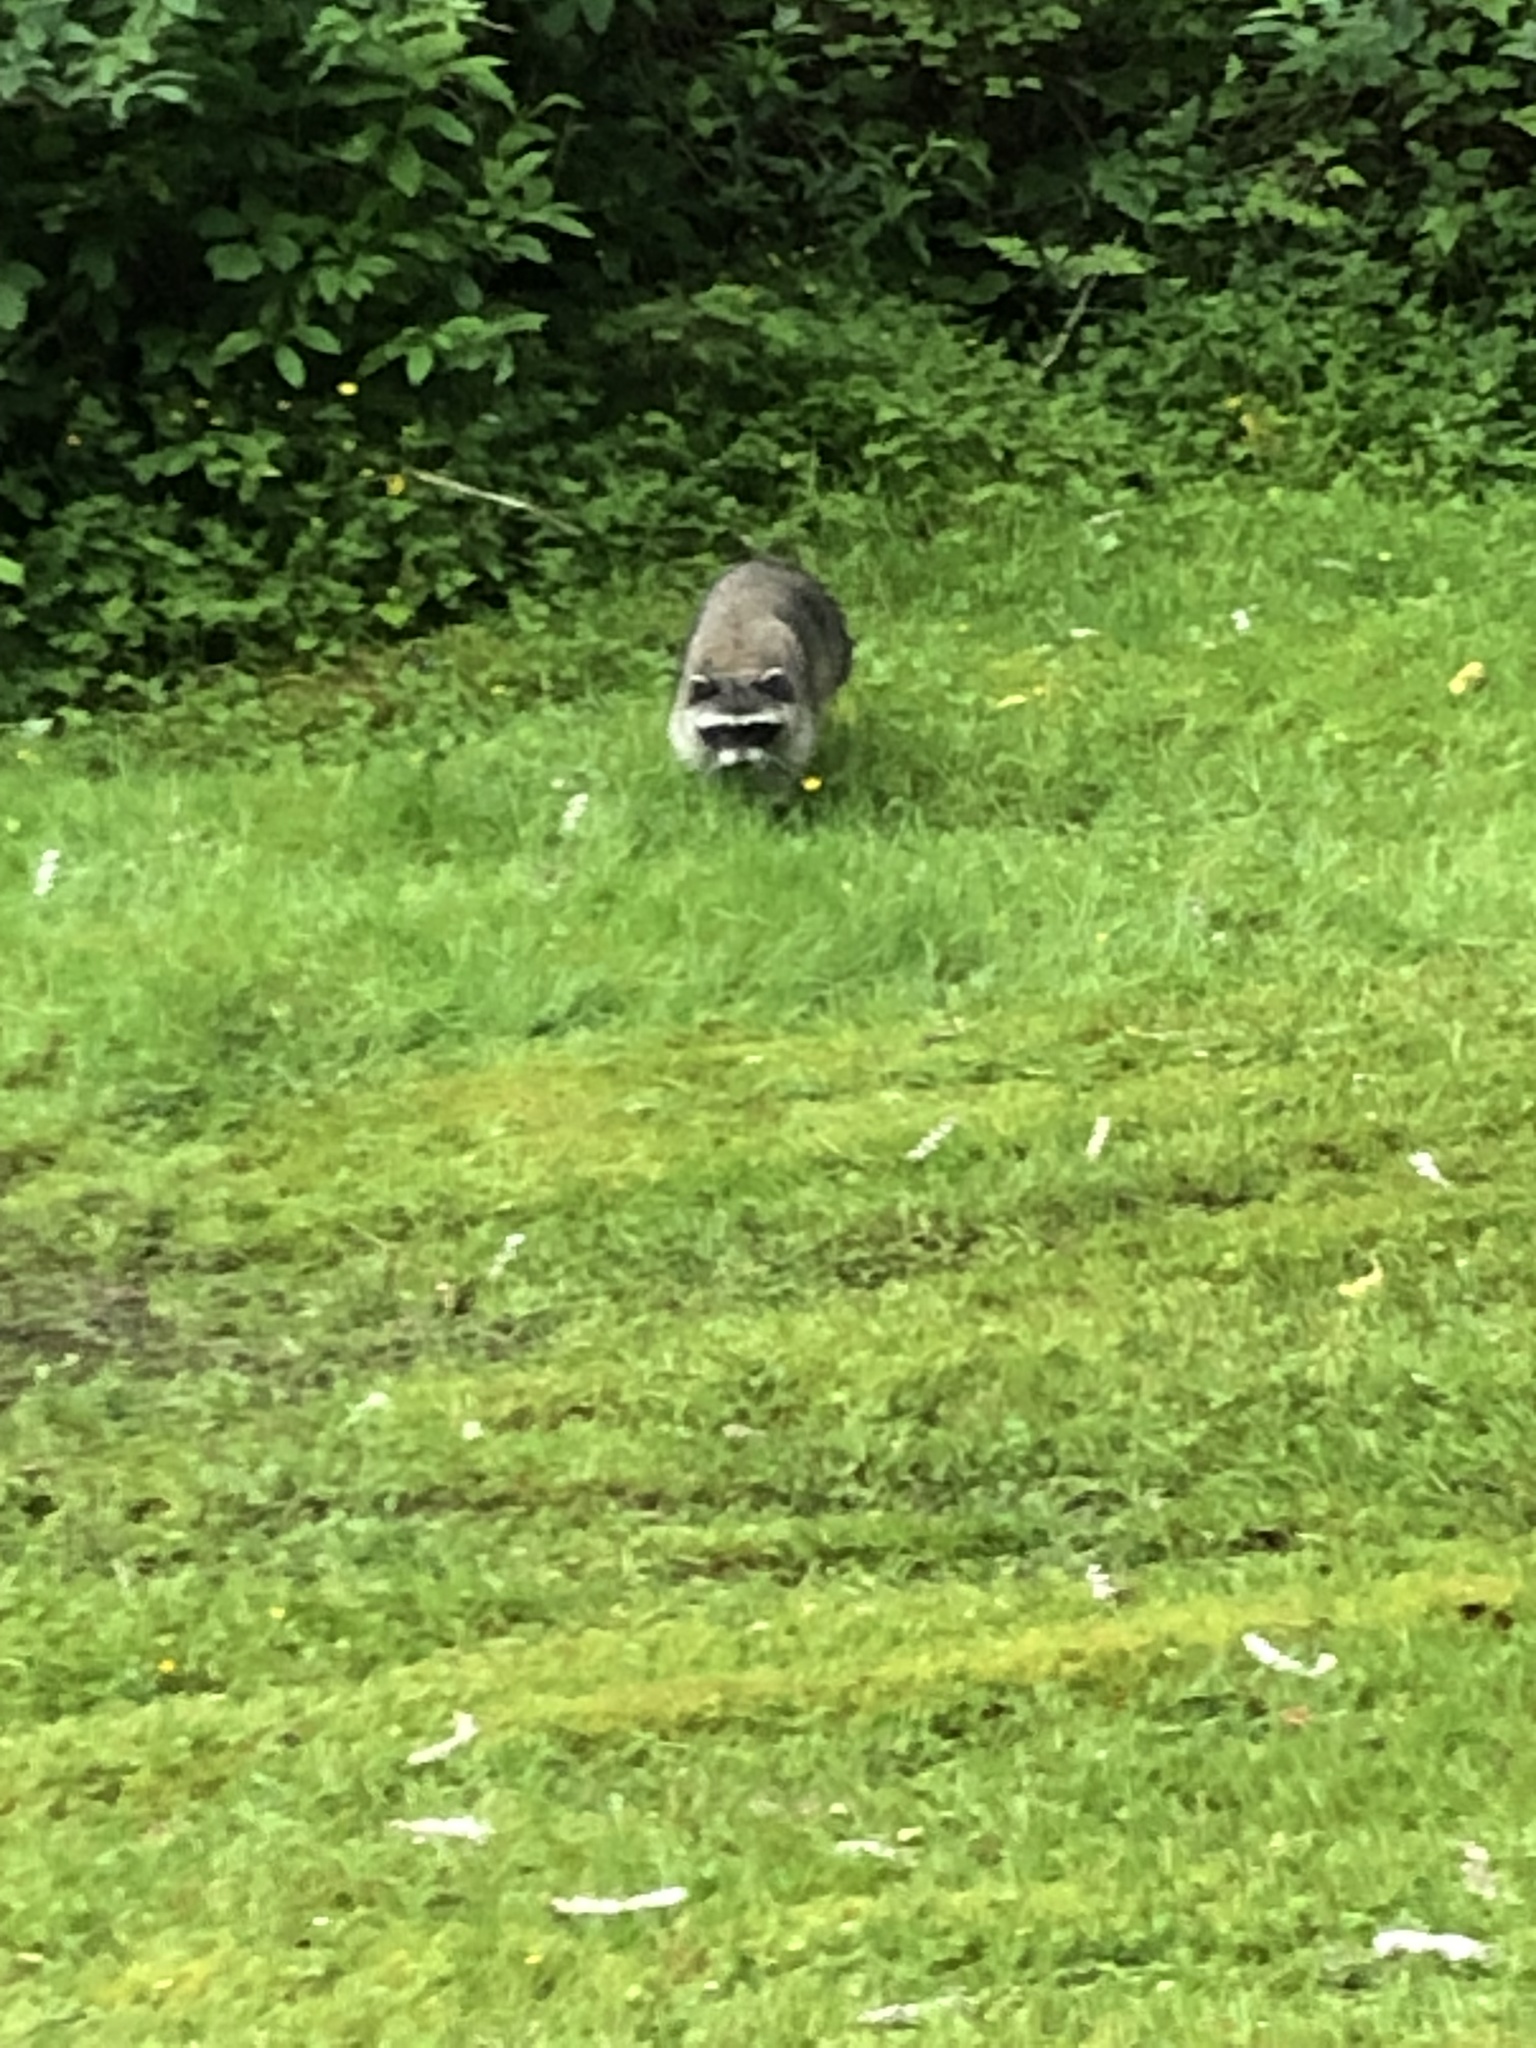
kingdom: Animalia
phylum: Chordata
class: Mammalia
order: Carnivora
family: Procyonidae
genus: Procyon
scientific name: Procyon lotor
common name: Raccoon
